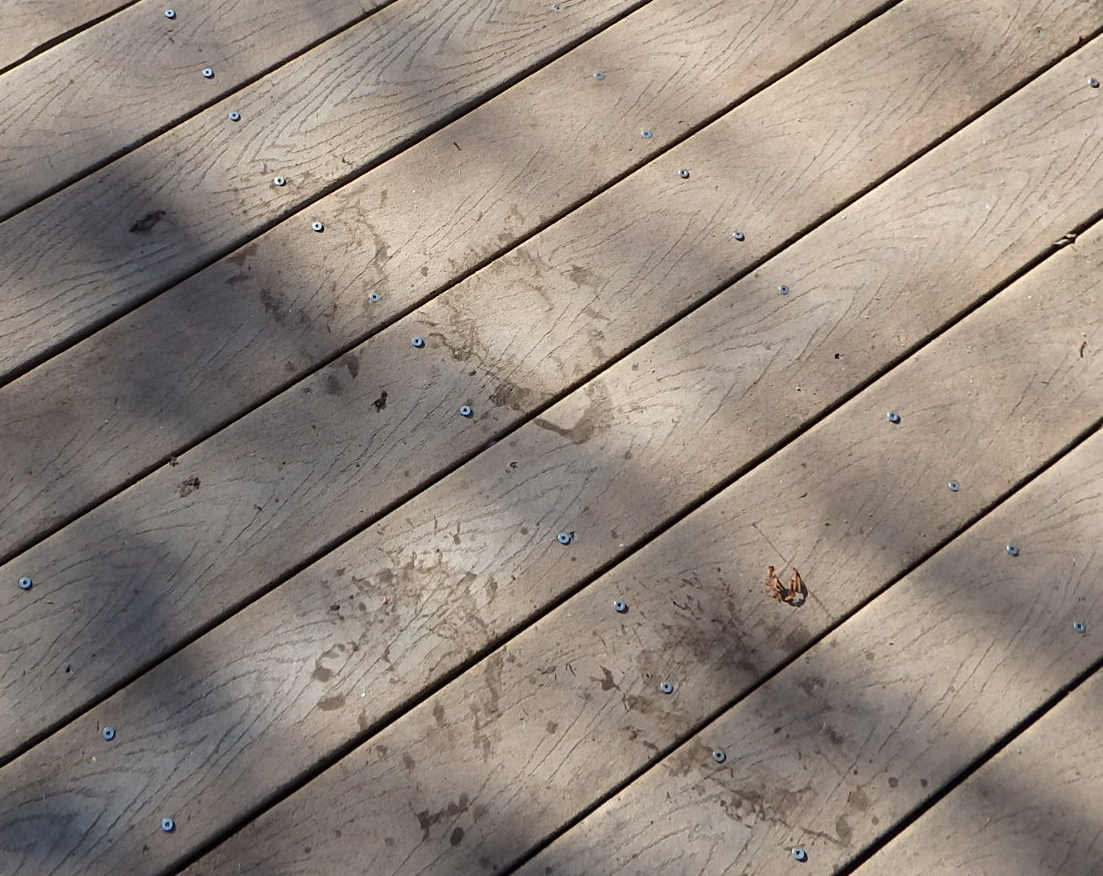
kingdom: Animalia
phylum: Chordata
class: Mammalia
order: Carnivora
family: Ursidae
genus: Ursus
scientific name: Ursus americanus
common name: American black bear
